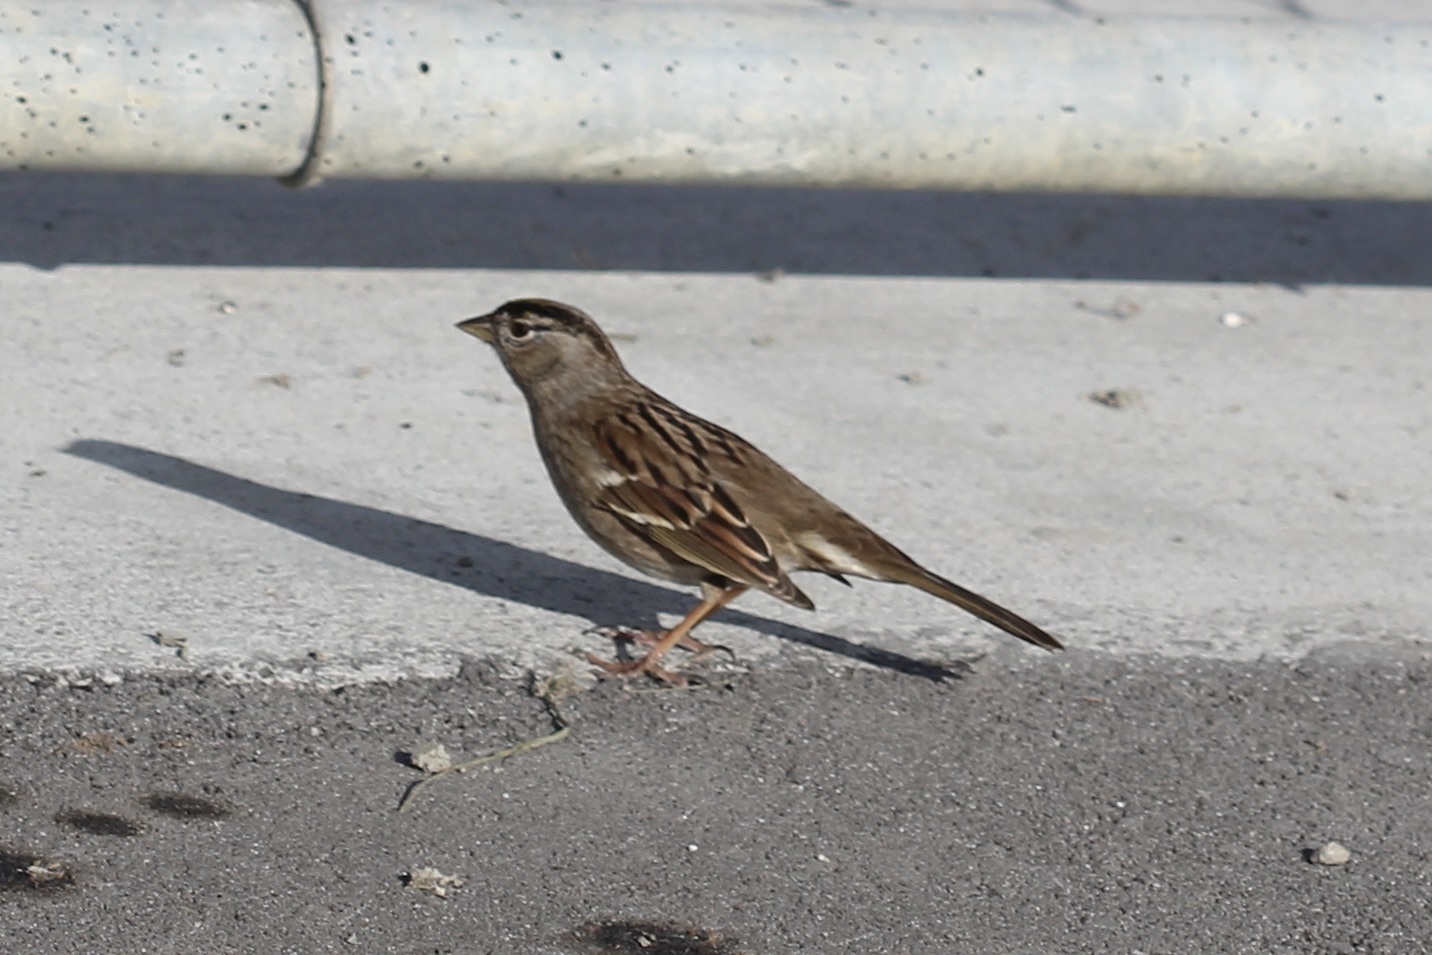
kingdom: Animalia
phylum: Chordata
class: Aves
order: Passeriformes
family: Passerellidae
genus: Zonotrichia
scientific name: Zonotrichia atricapilla
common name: Golden-crowned sparrow
